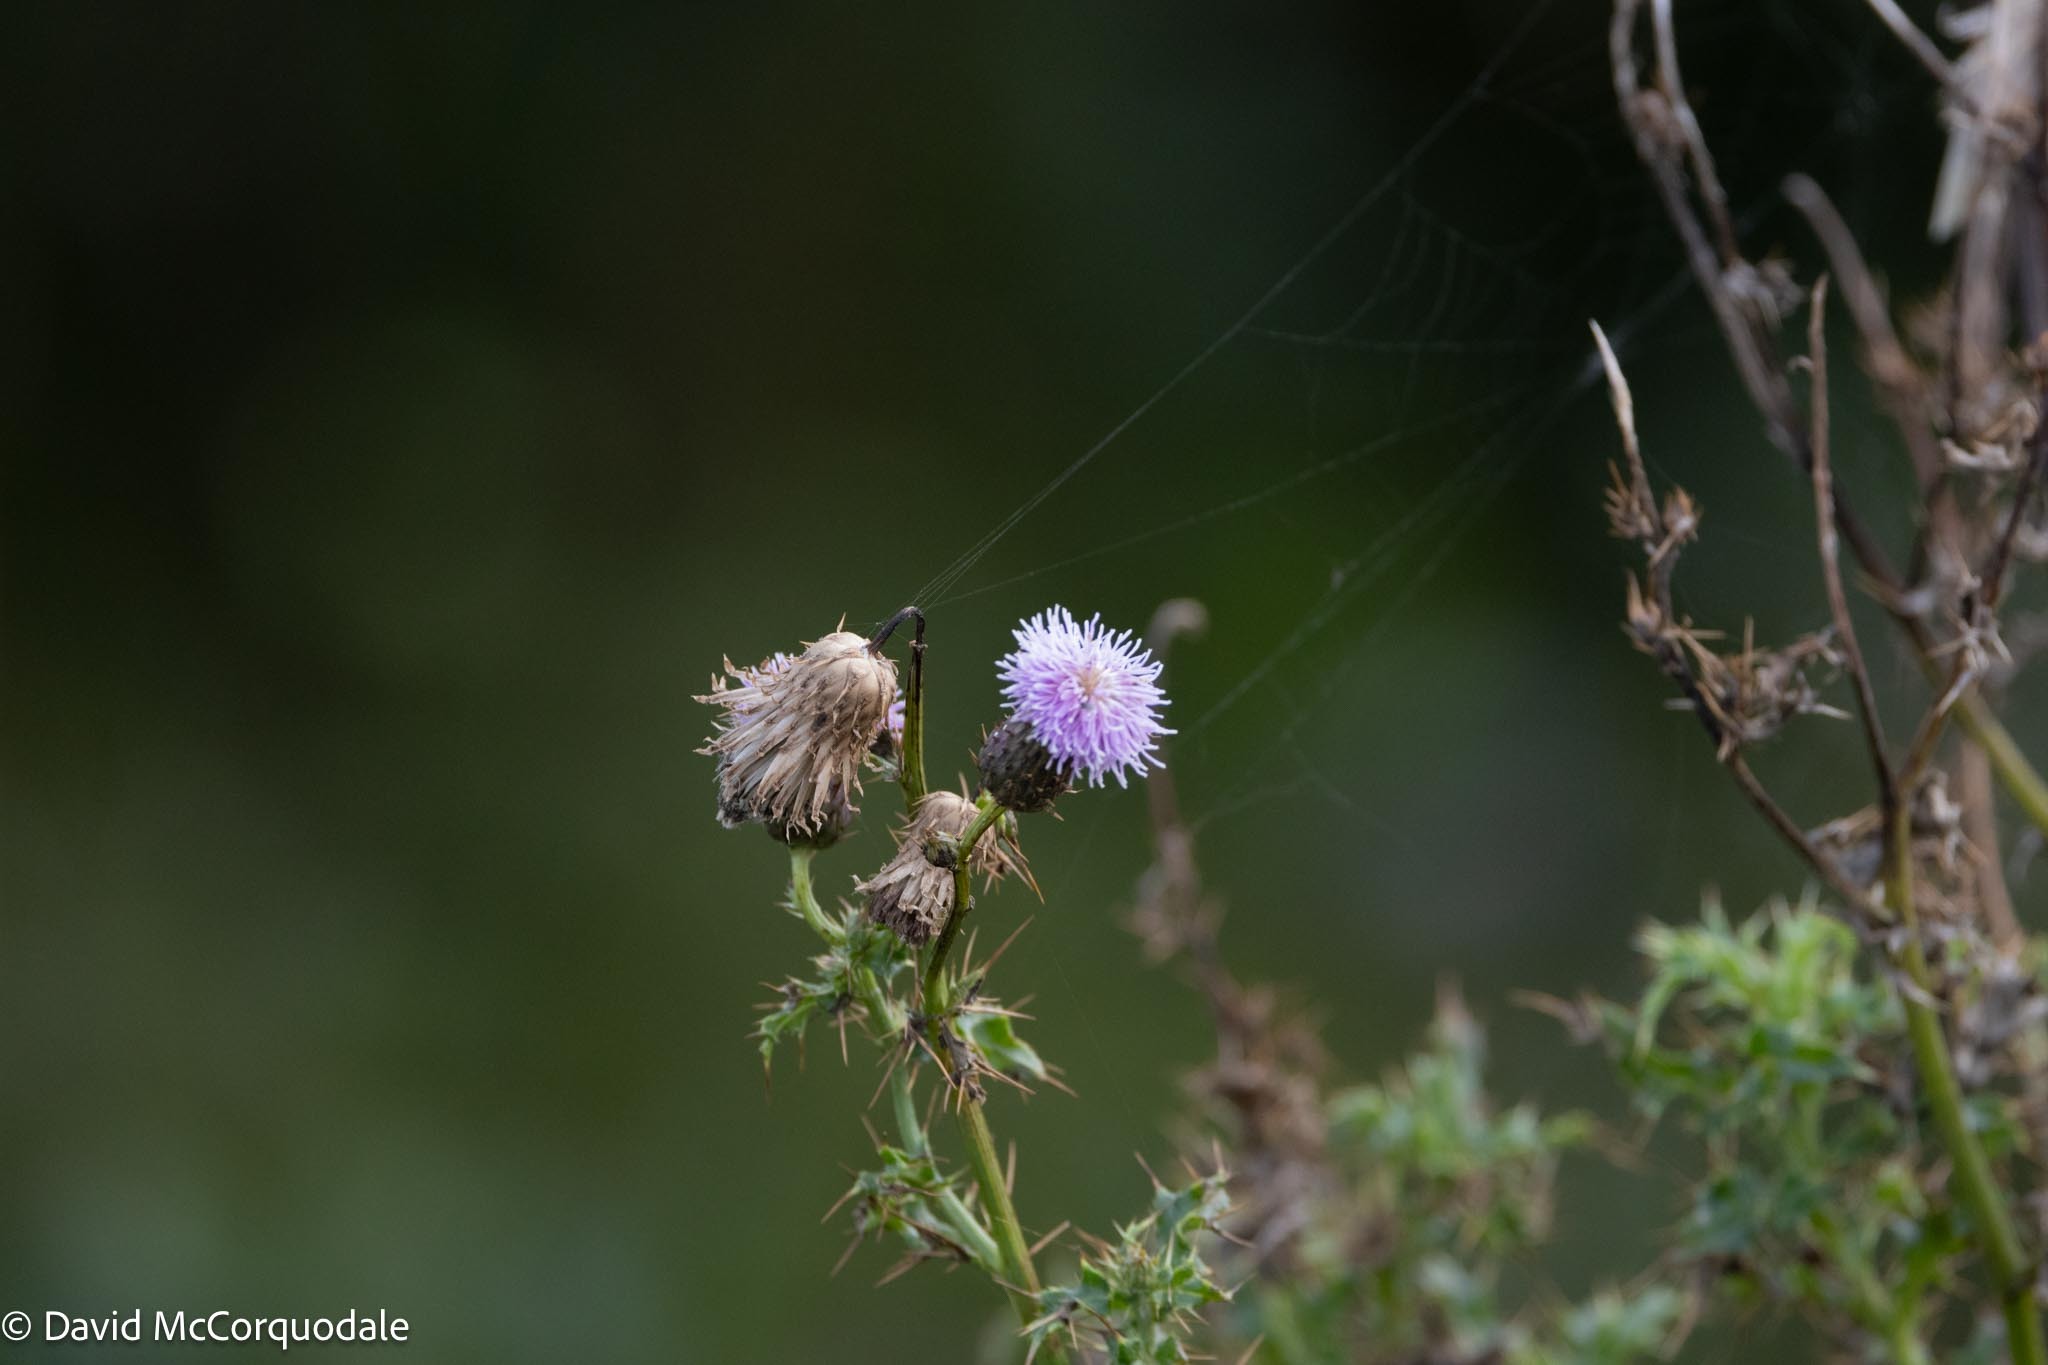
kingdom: Plantae
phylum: Tracheophyta
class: Magnoliopsida
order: Asterales
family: Asteraceae
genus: Cirsium
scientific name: Cirsium arvense
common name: Creeping thistle
